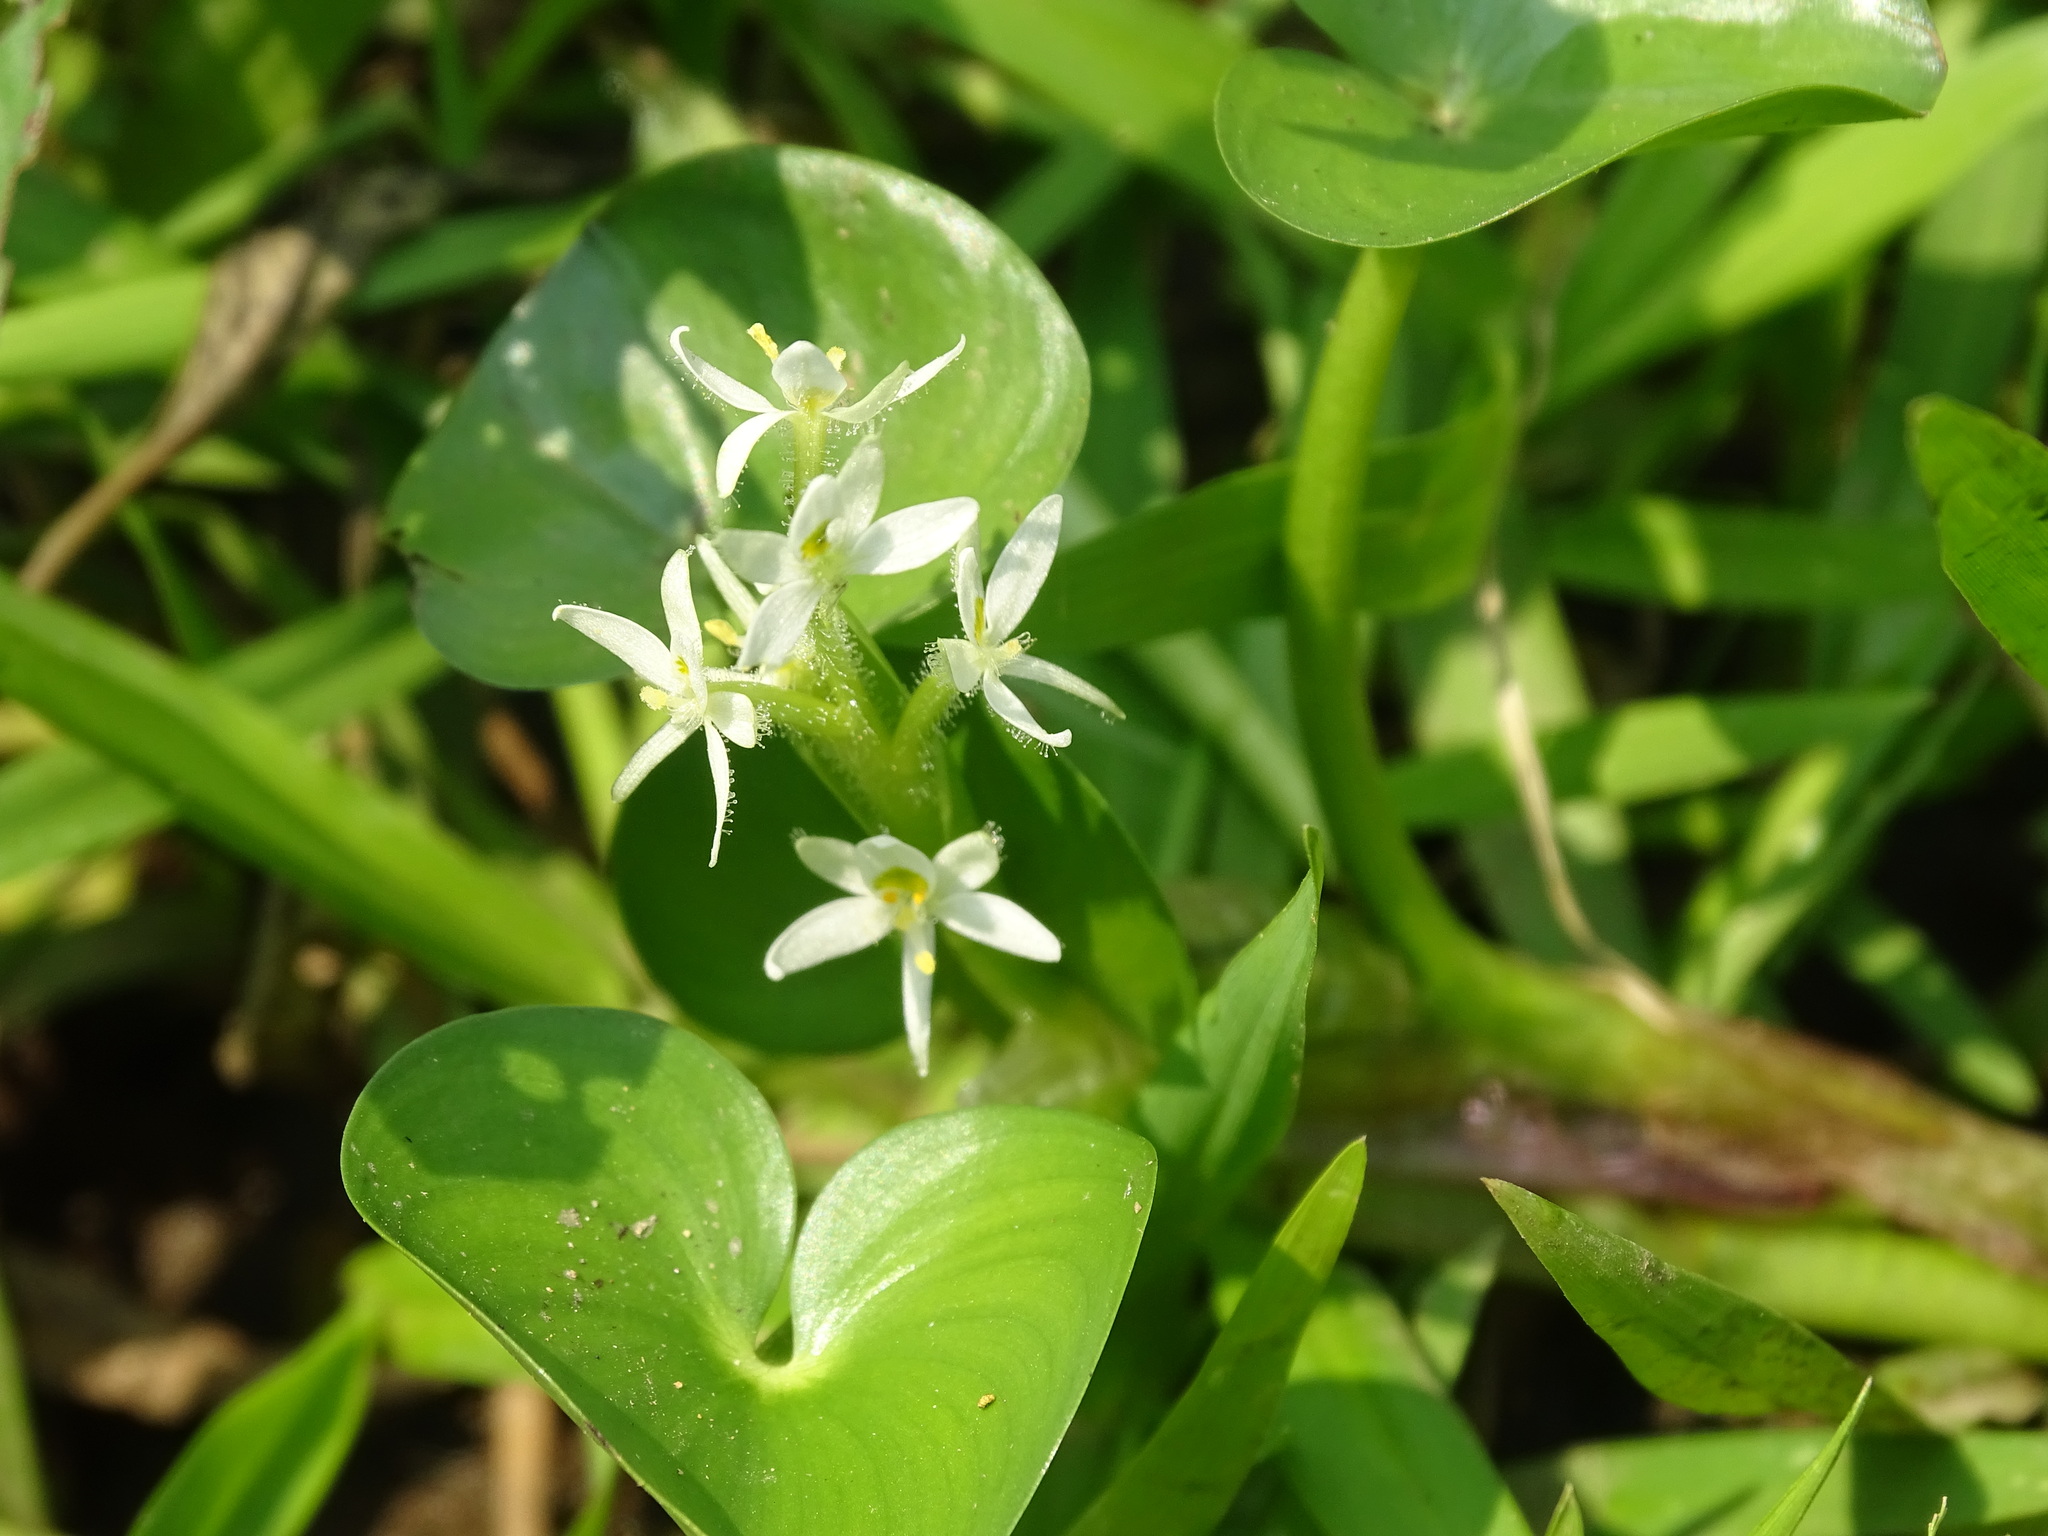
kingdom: Plantae
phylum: Tracheophyta
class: Liliopsida
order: Commelinales
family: Pontederiaceae
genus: Heteranthera
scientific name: Heteranthera reniformis
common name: Kidneyleaf mudplantain
